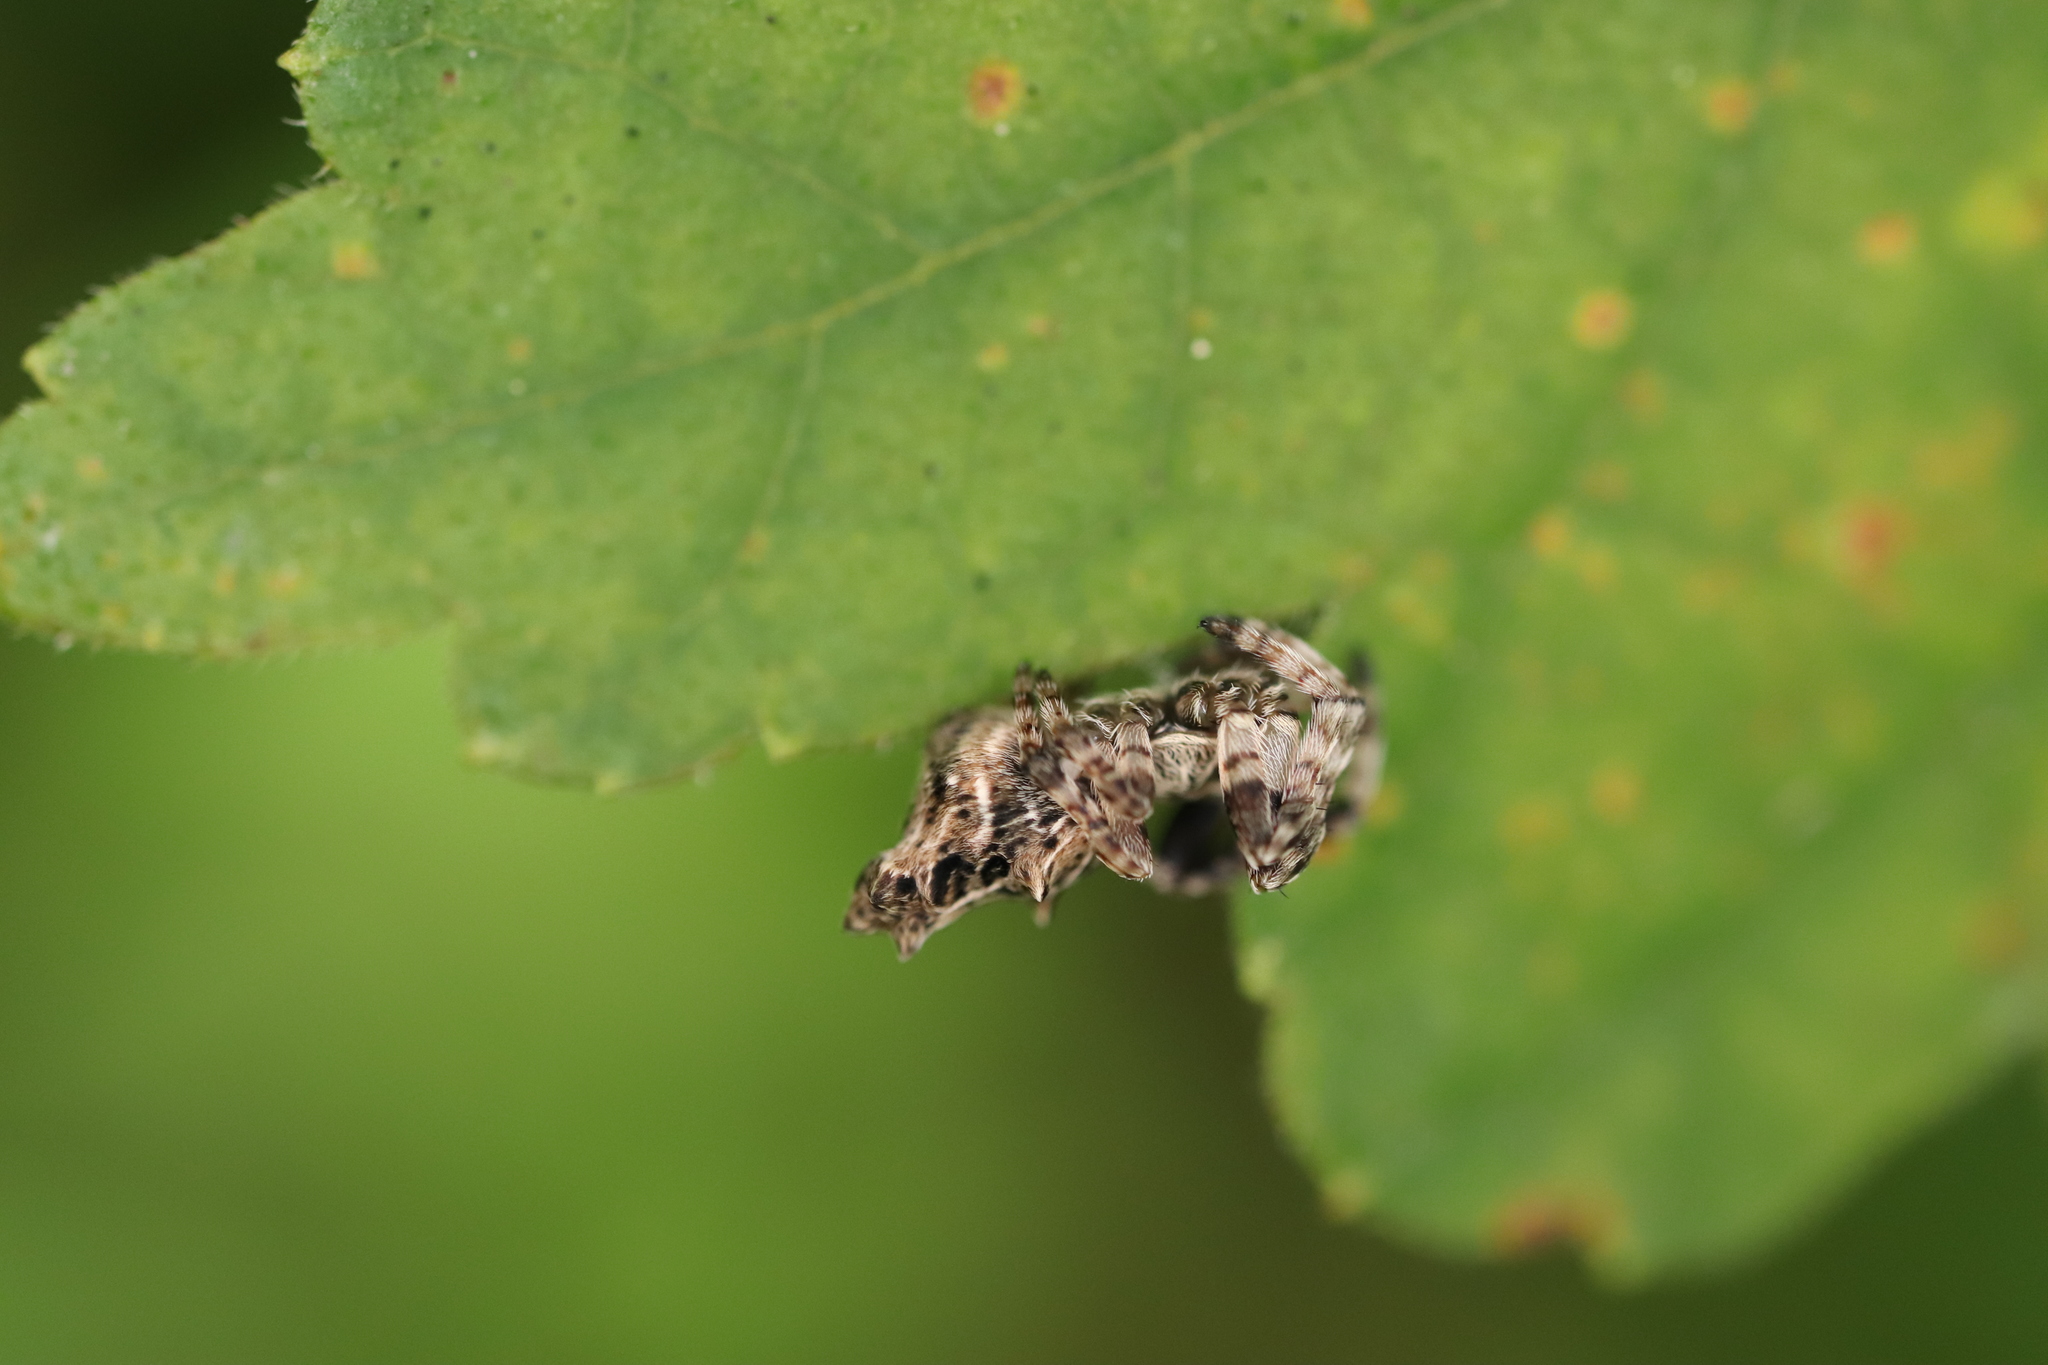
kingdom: Animalia
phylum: Arthropoda
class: Arachnida
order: Araneae
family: Araneidae
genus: Cyclosa
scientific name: Cyclosa octotuberculata
